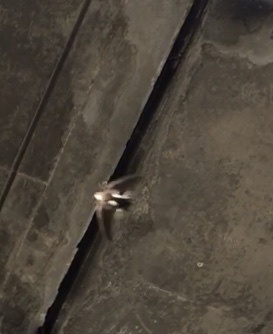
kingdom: Animalia
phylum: Chordata
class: Aves
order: Apodiformes
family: Apodidae
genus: Aeronautes
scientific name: Aeronautes saxatalis
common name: White-throated swift
